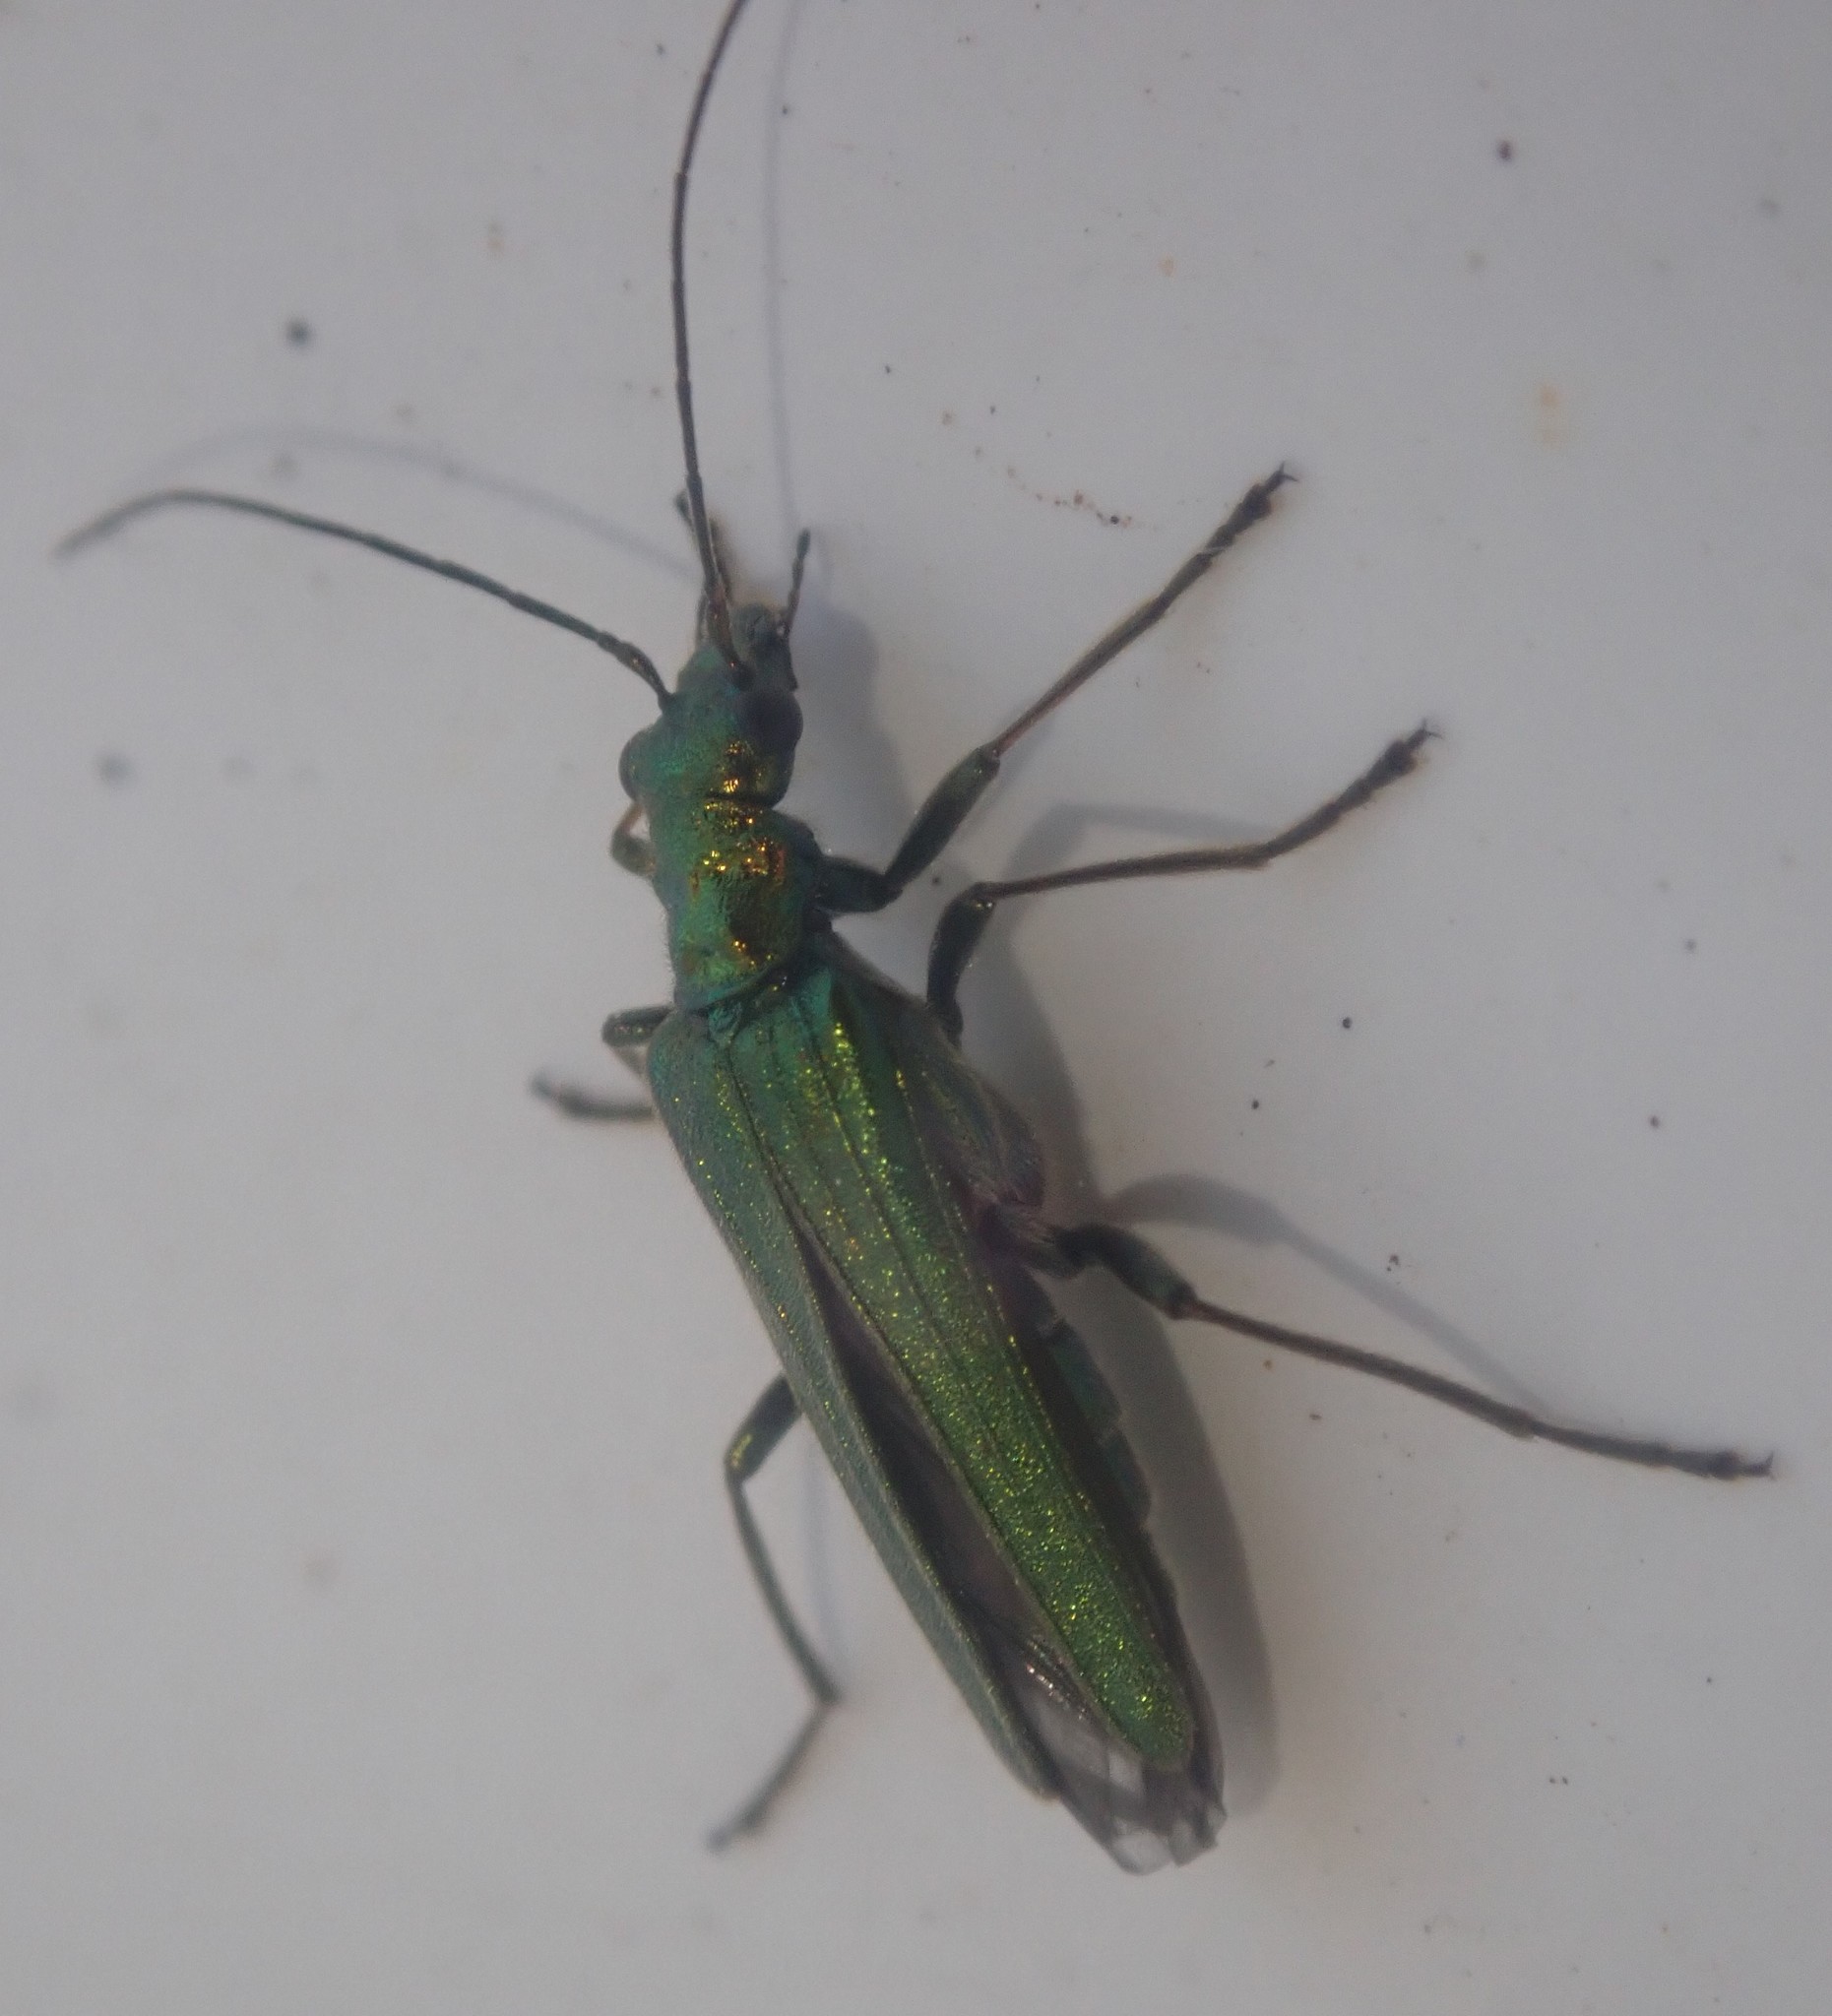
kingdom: Animalia
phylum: Arthropoda
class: Insecta
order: Coleoptera
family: Oedemeridae
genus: Oedemera
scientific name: Oedemera nobilis
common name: Swollen-thighed beetle
